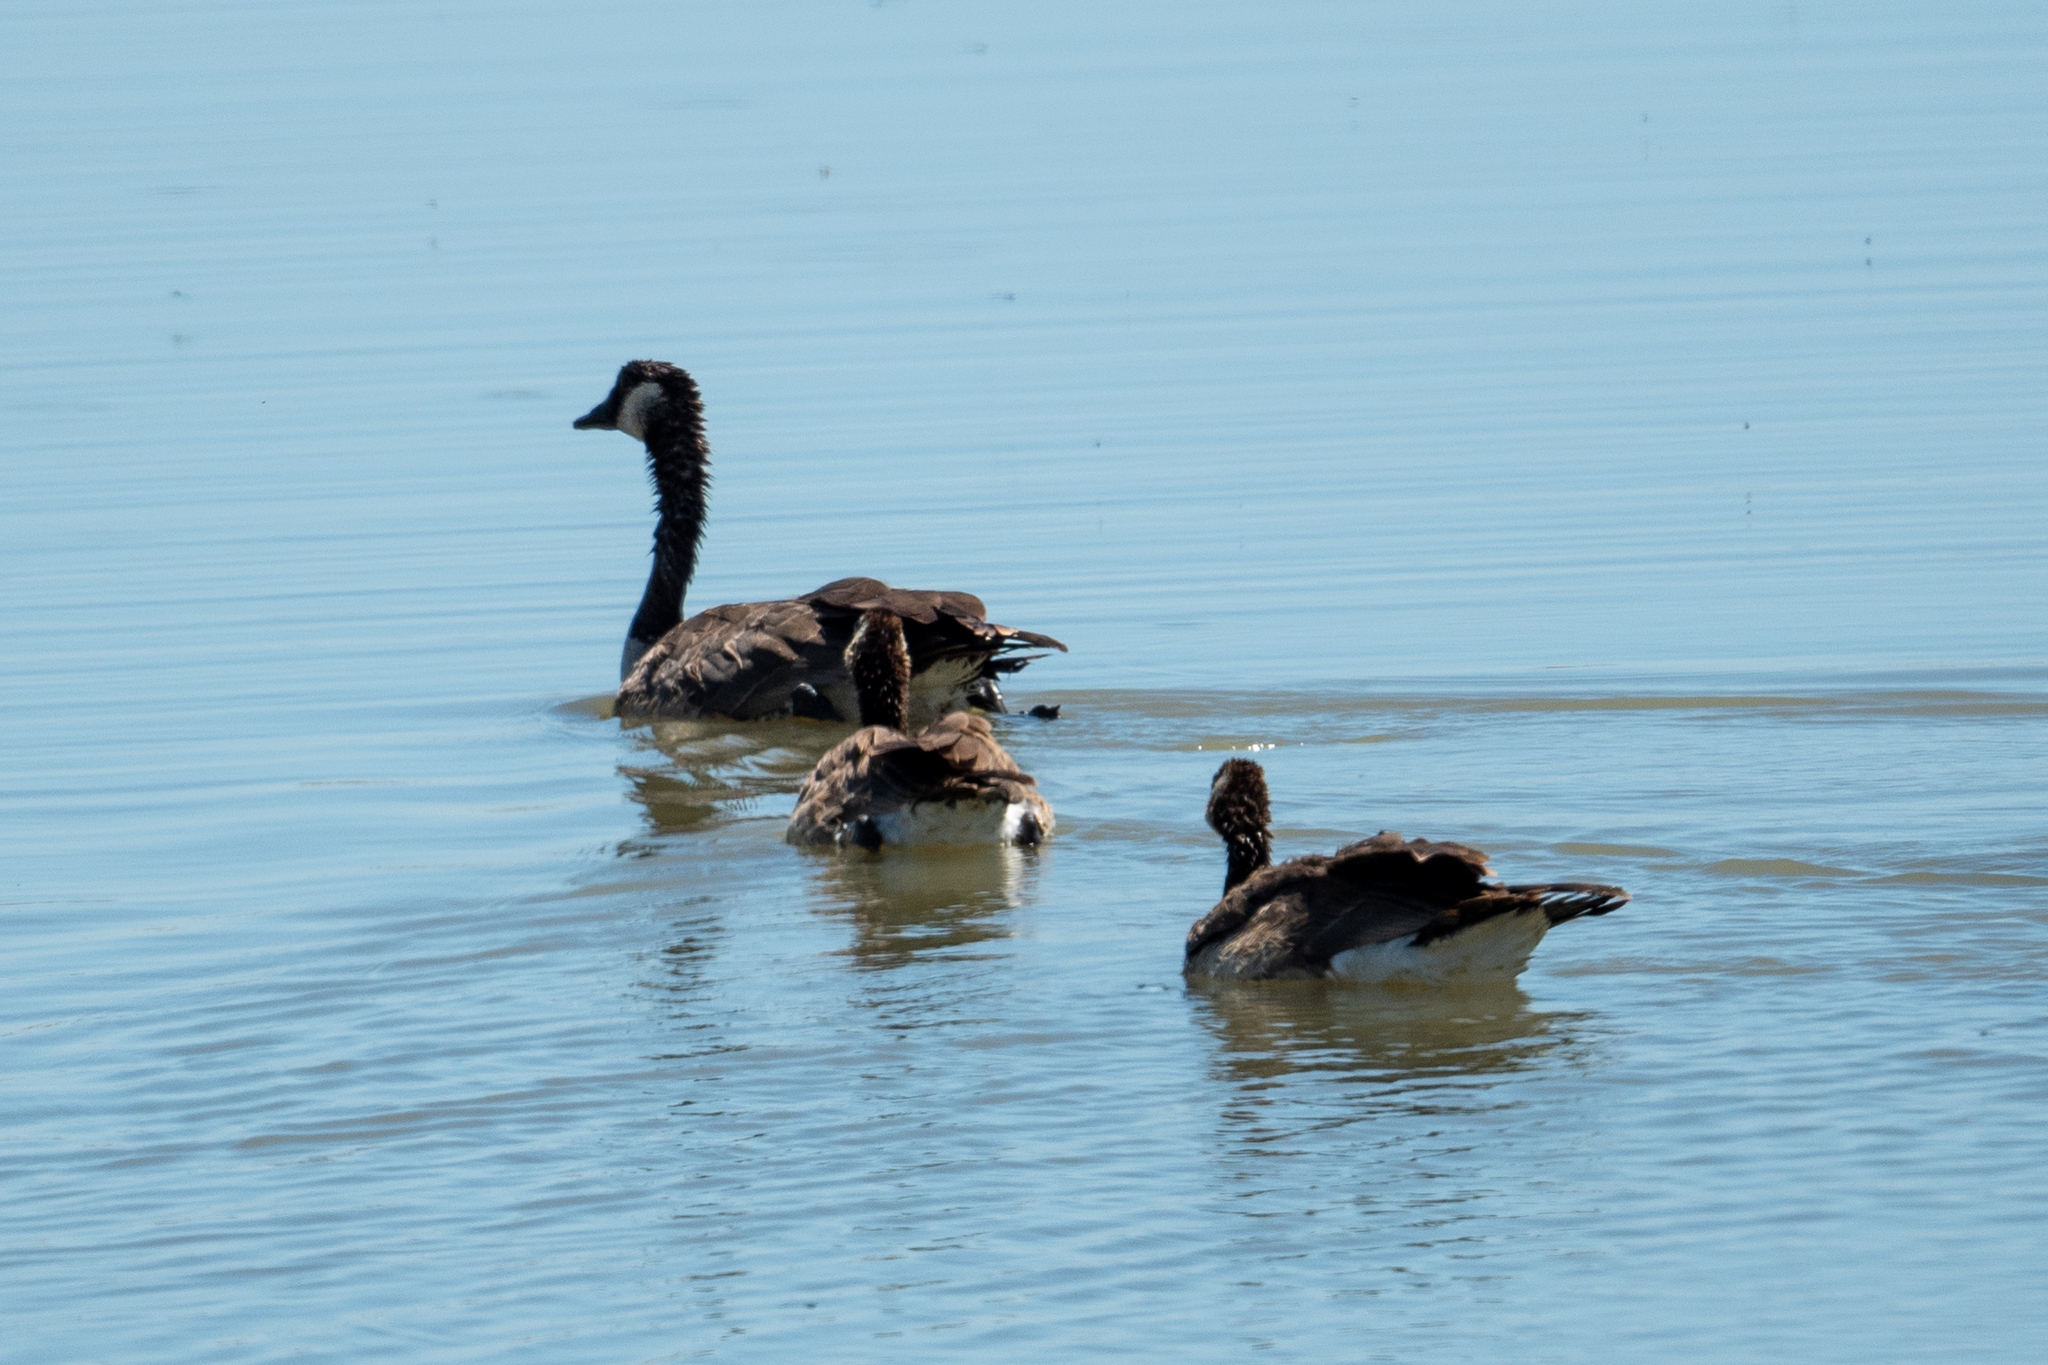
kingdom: Animalia
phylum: Chordata
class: Aves
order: Anseriformes
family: Anatidae
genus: Branta
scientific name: Branta canadensis
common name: Canada goose
